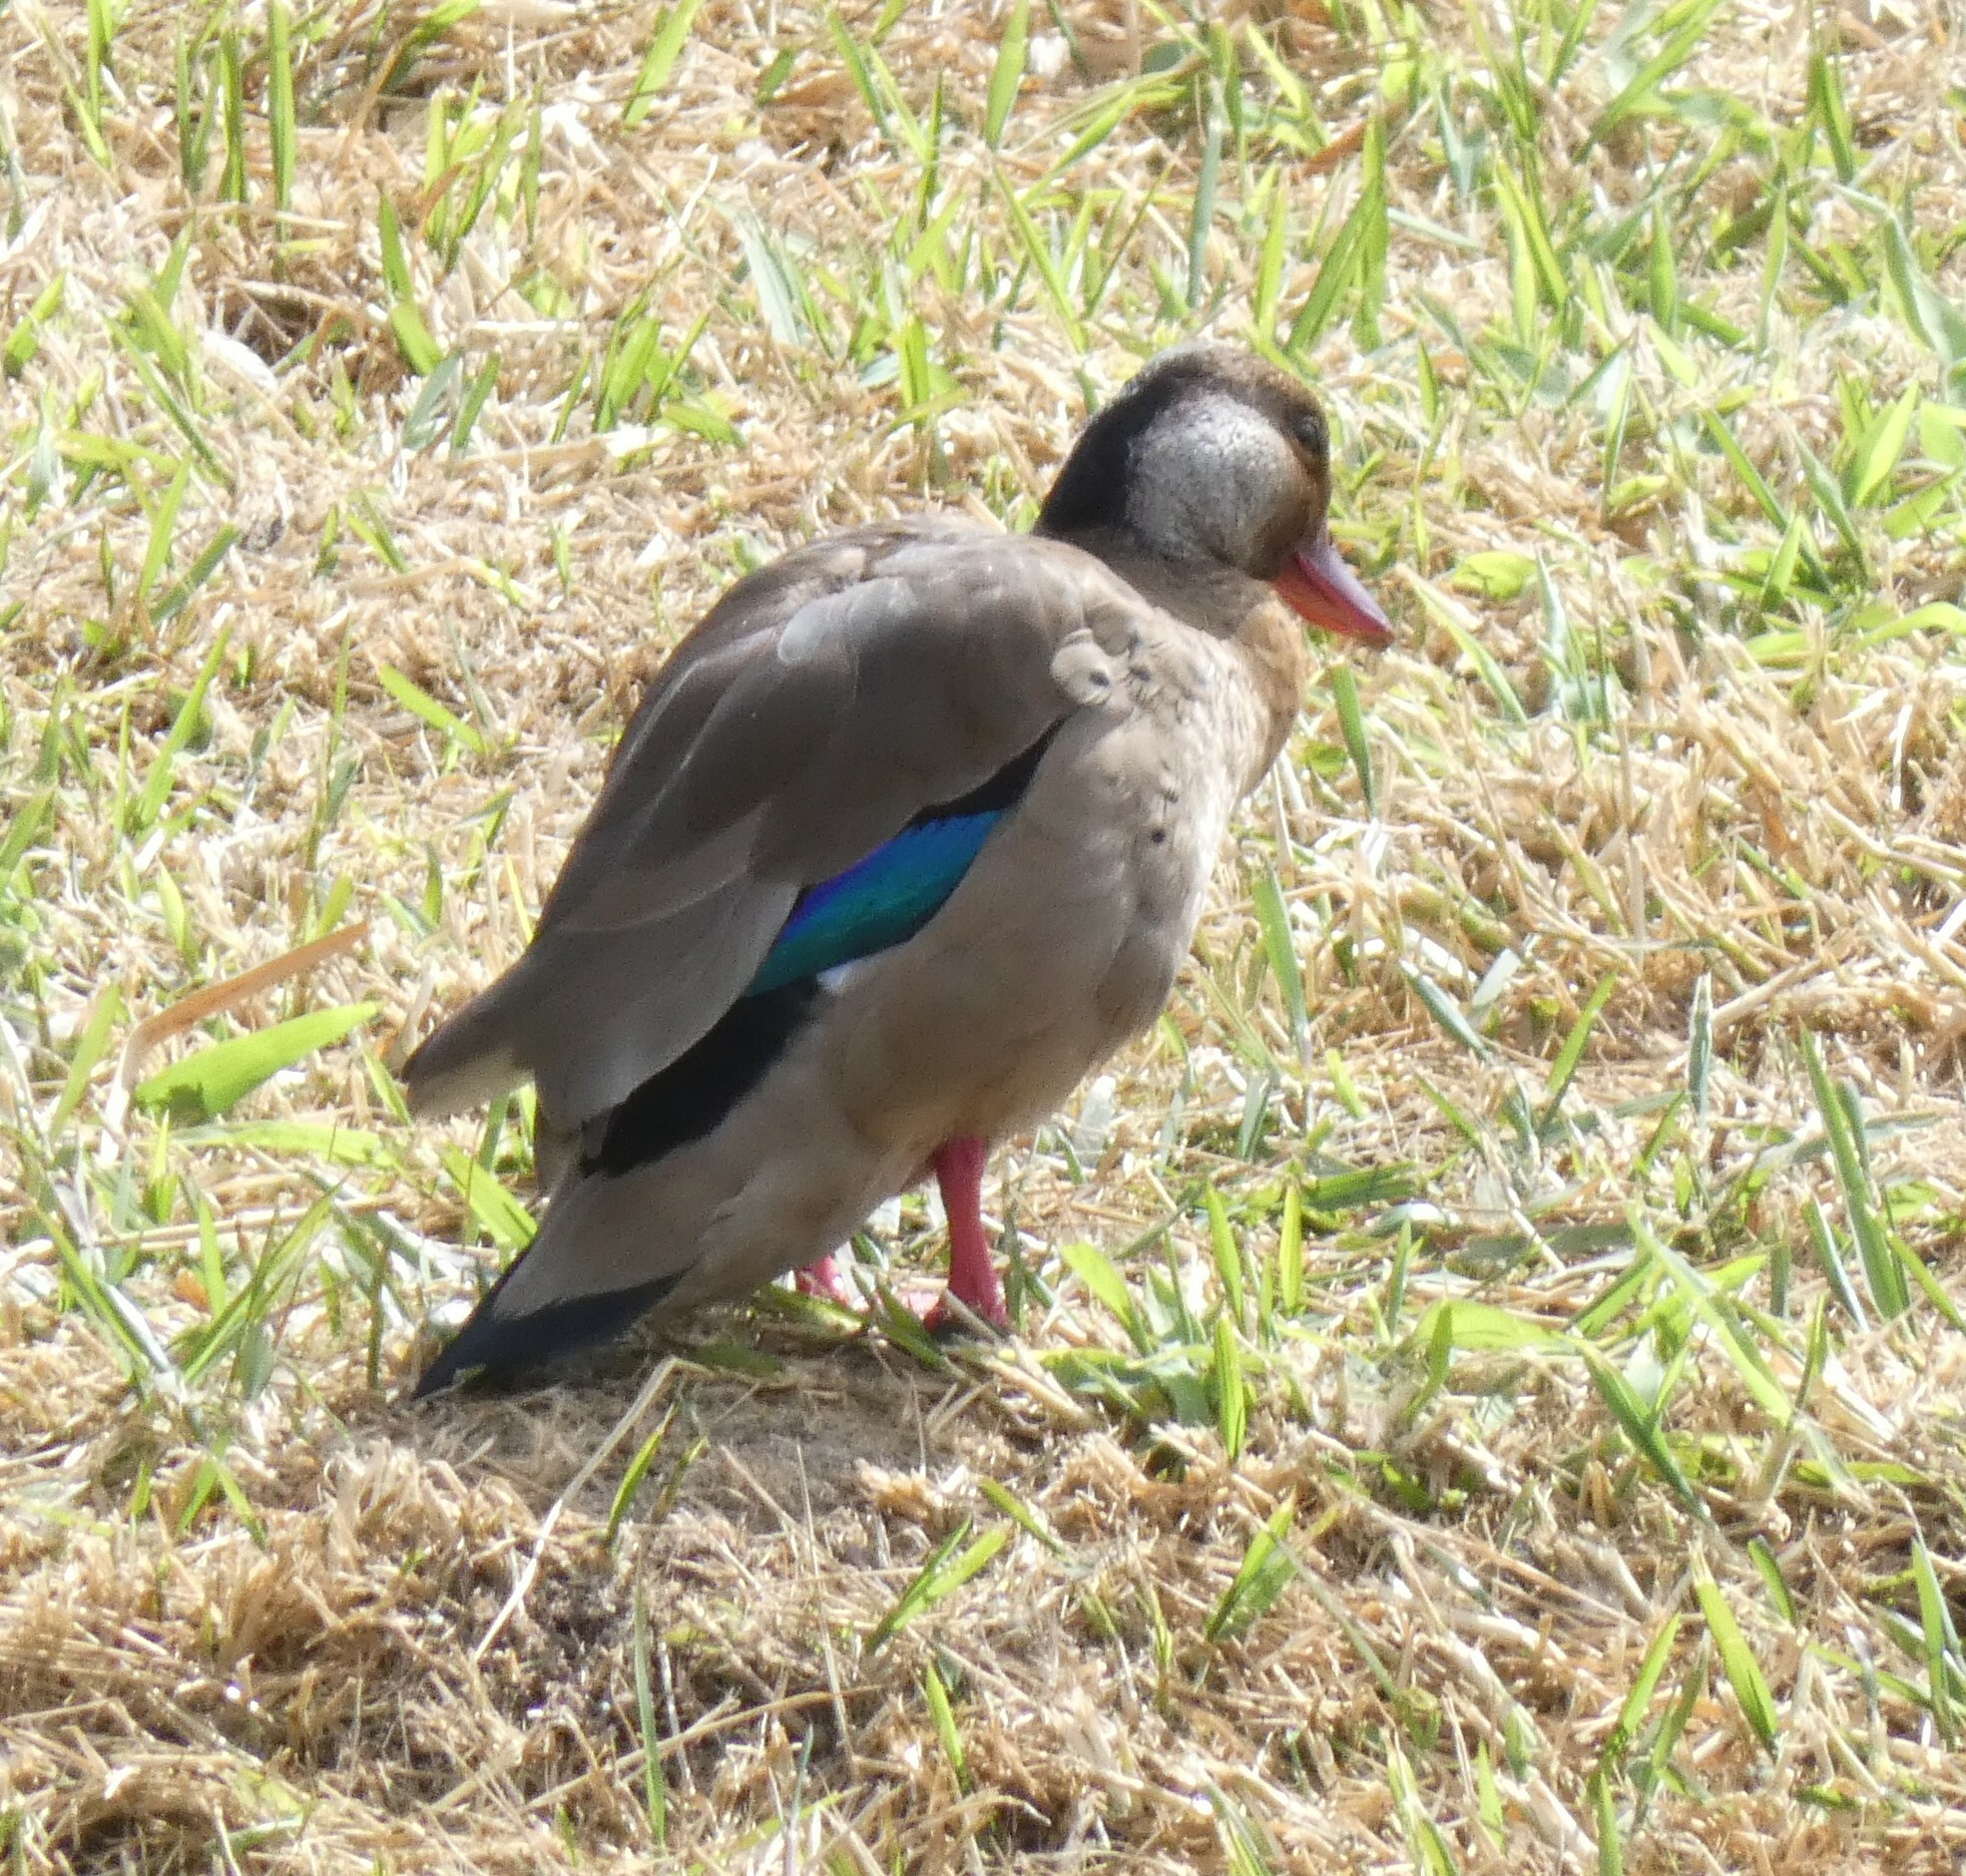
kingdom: Animalia
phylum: Chordata
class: Aves
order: Anseriformes
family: Anatidae
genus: Amazonetta
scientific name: Amazonetta brasiliensis
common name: Brazilian teal
